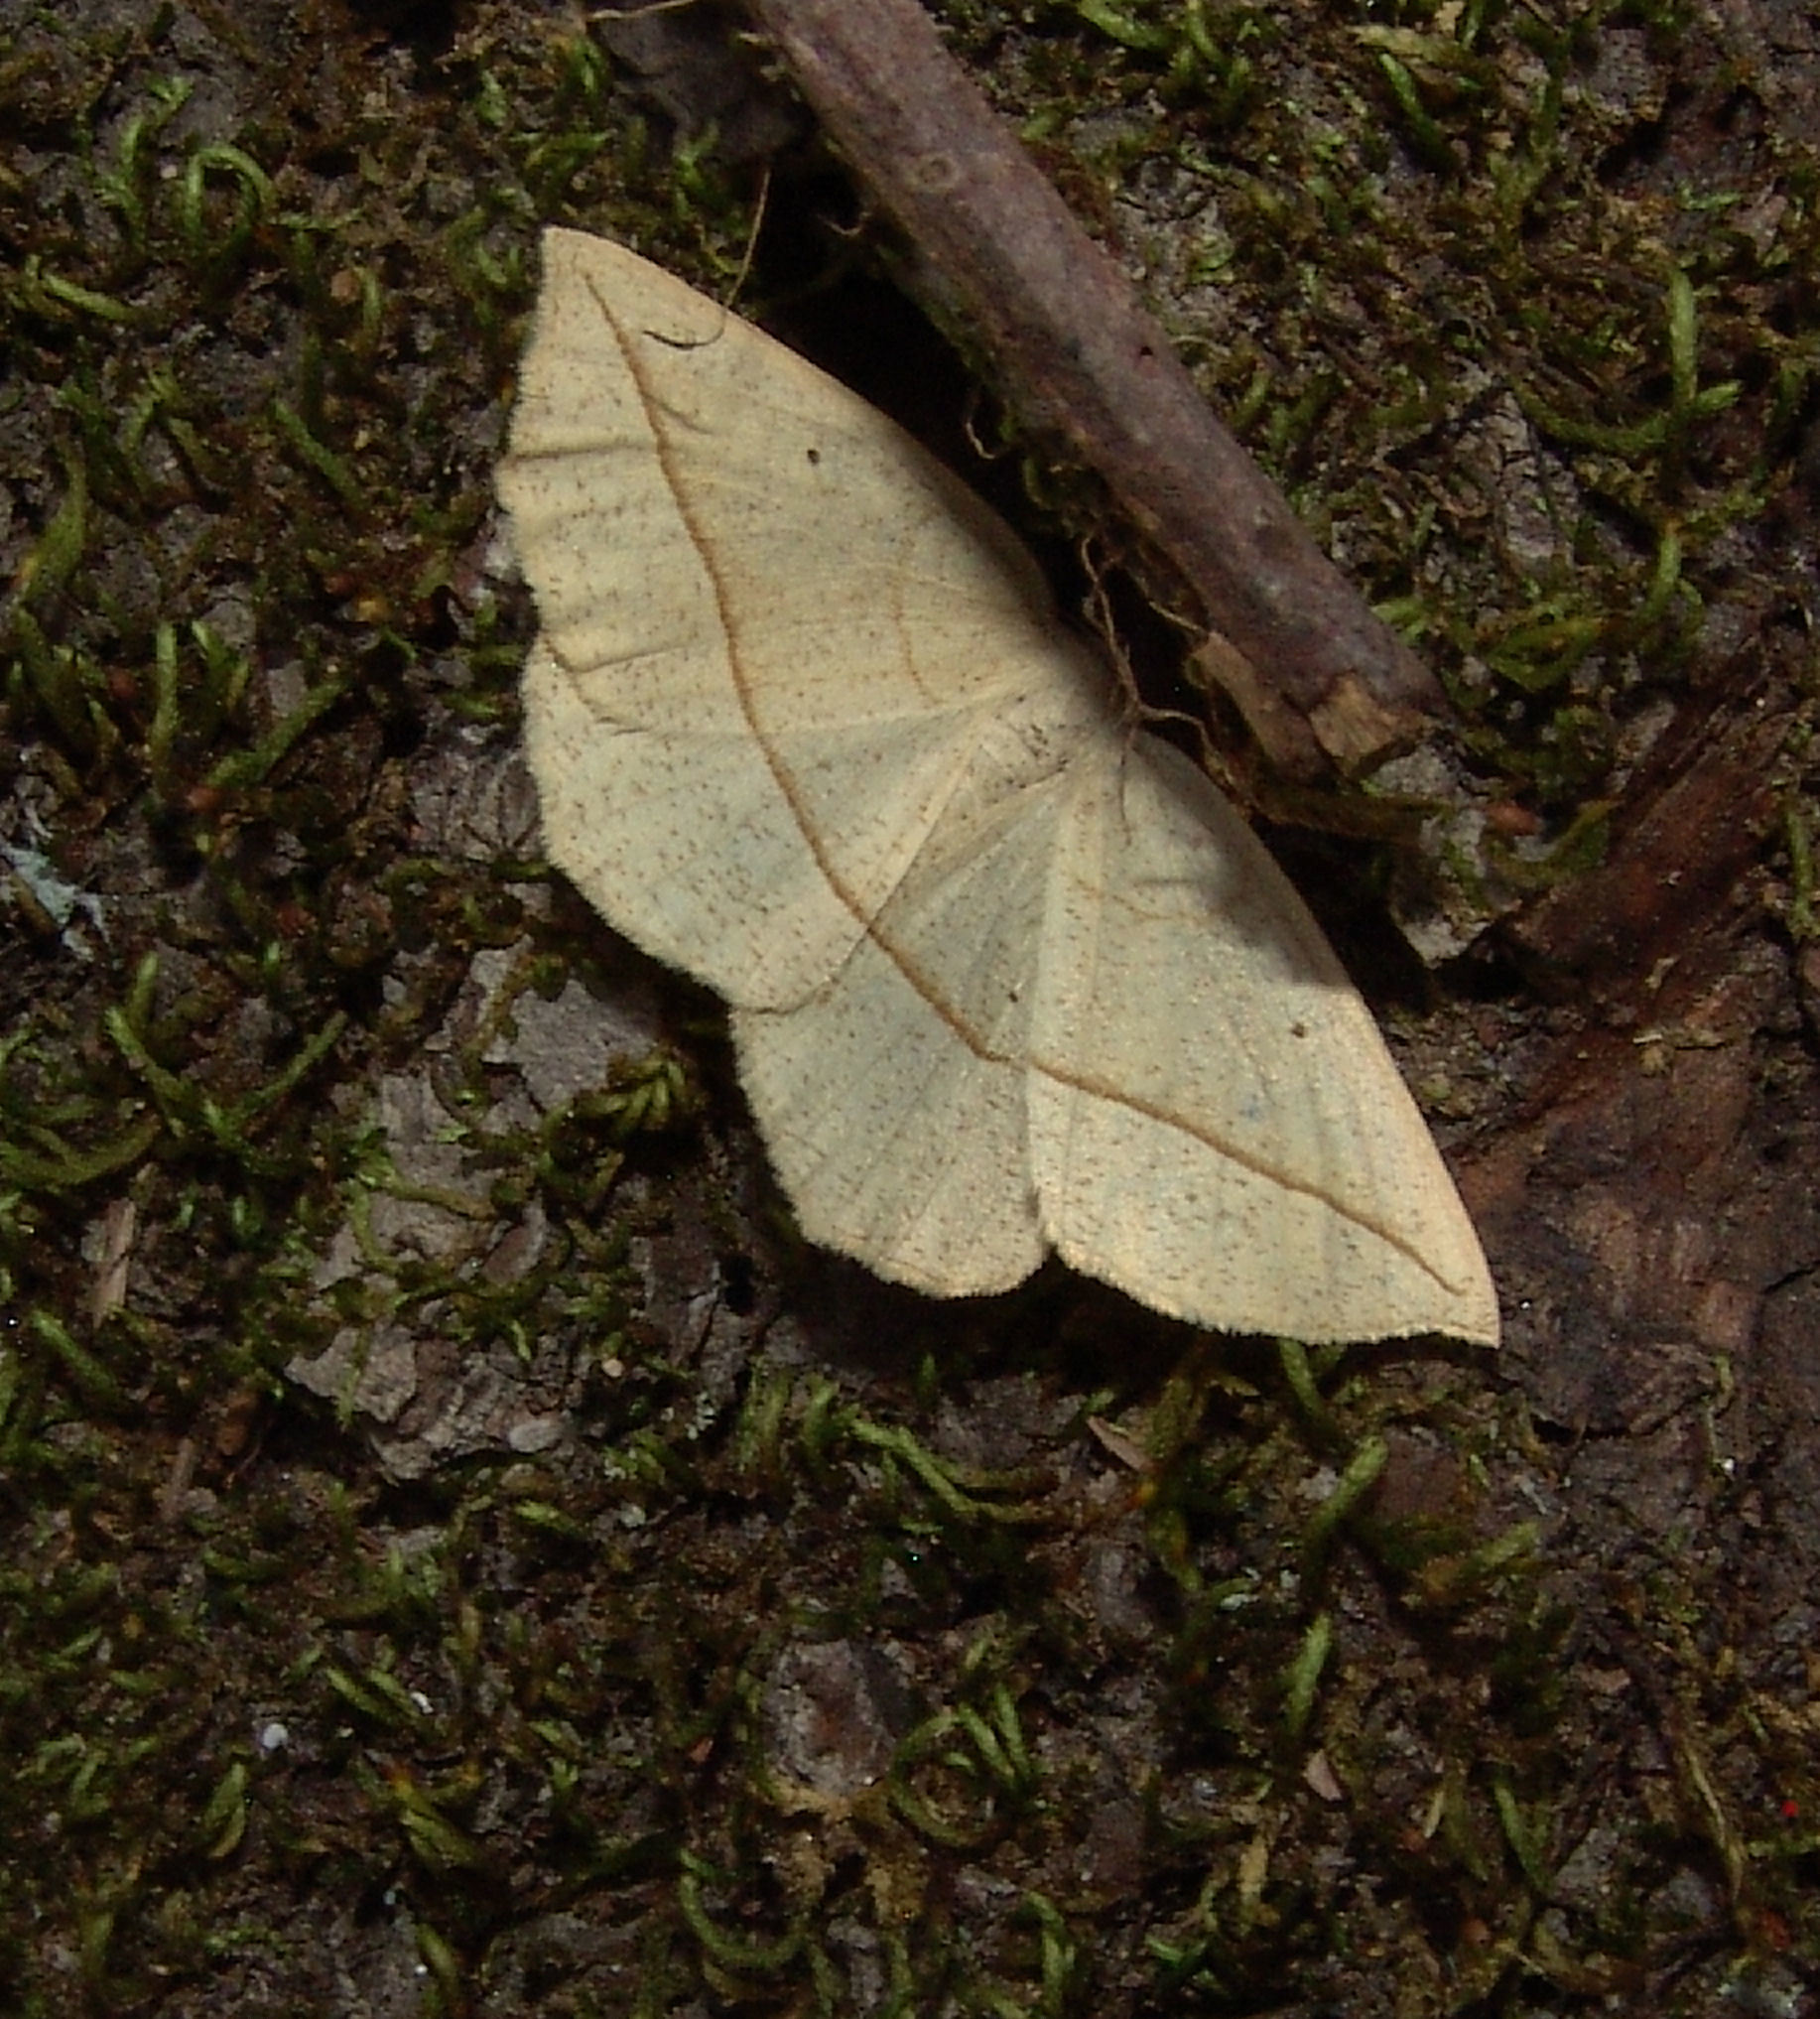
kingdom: Animalia
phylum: Arthropoda
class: Insecta
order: Lepidoptera
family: Geometridae
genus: Eusarca
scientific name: Eusarca confusaria
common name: Confused eusarca
